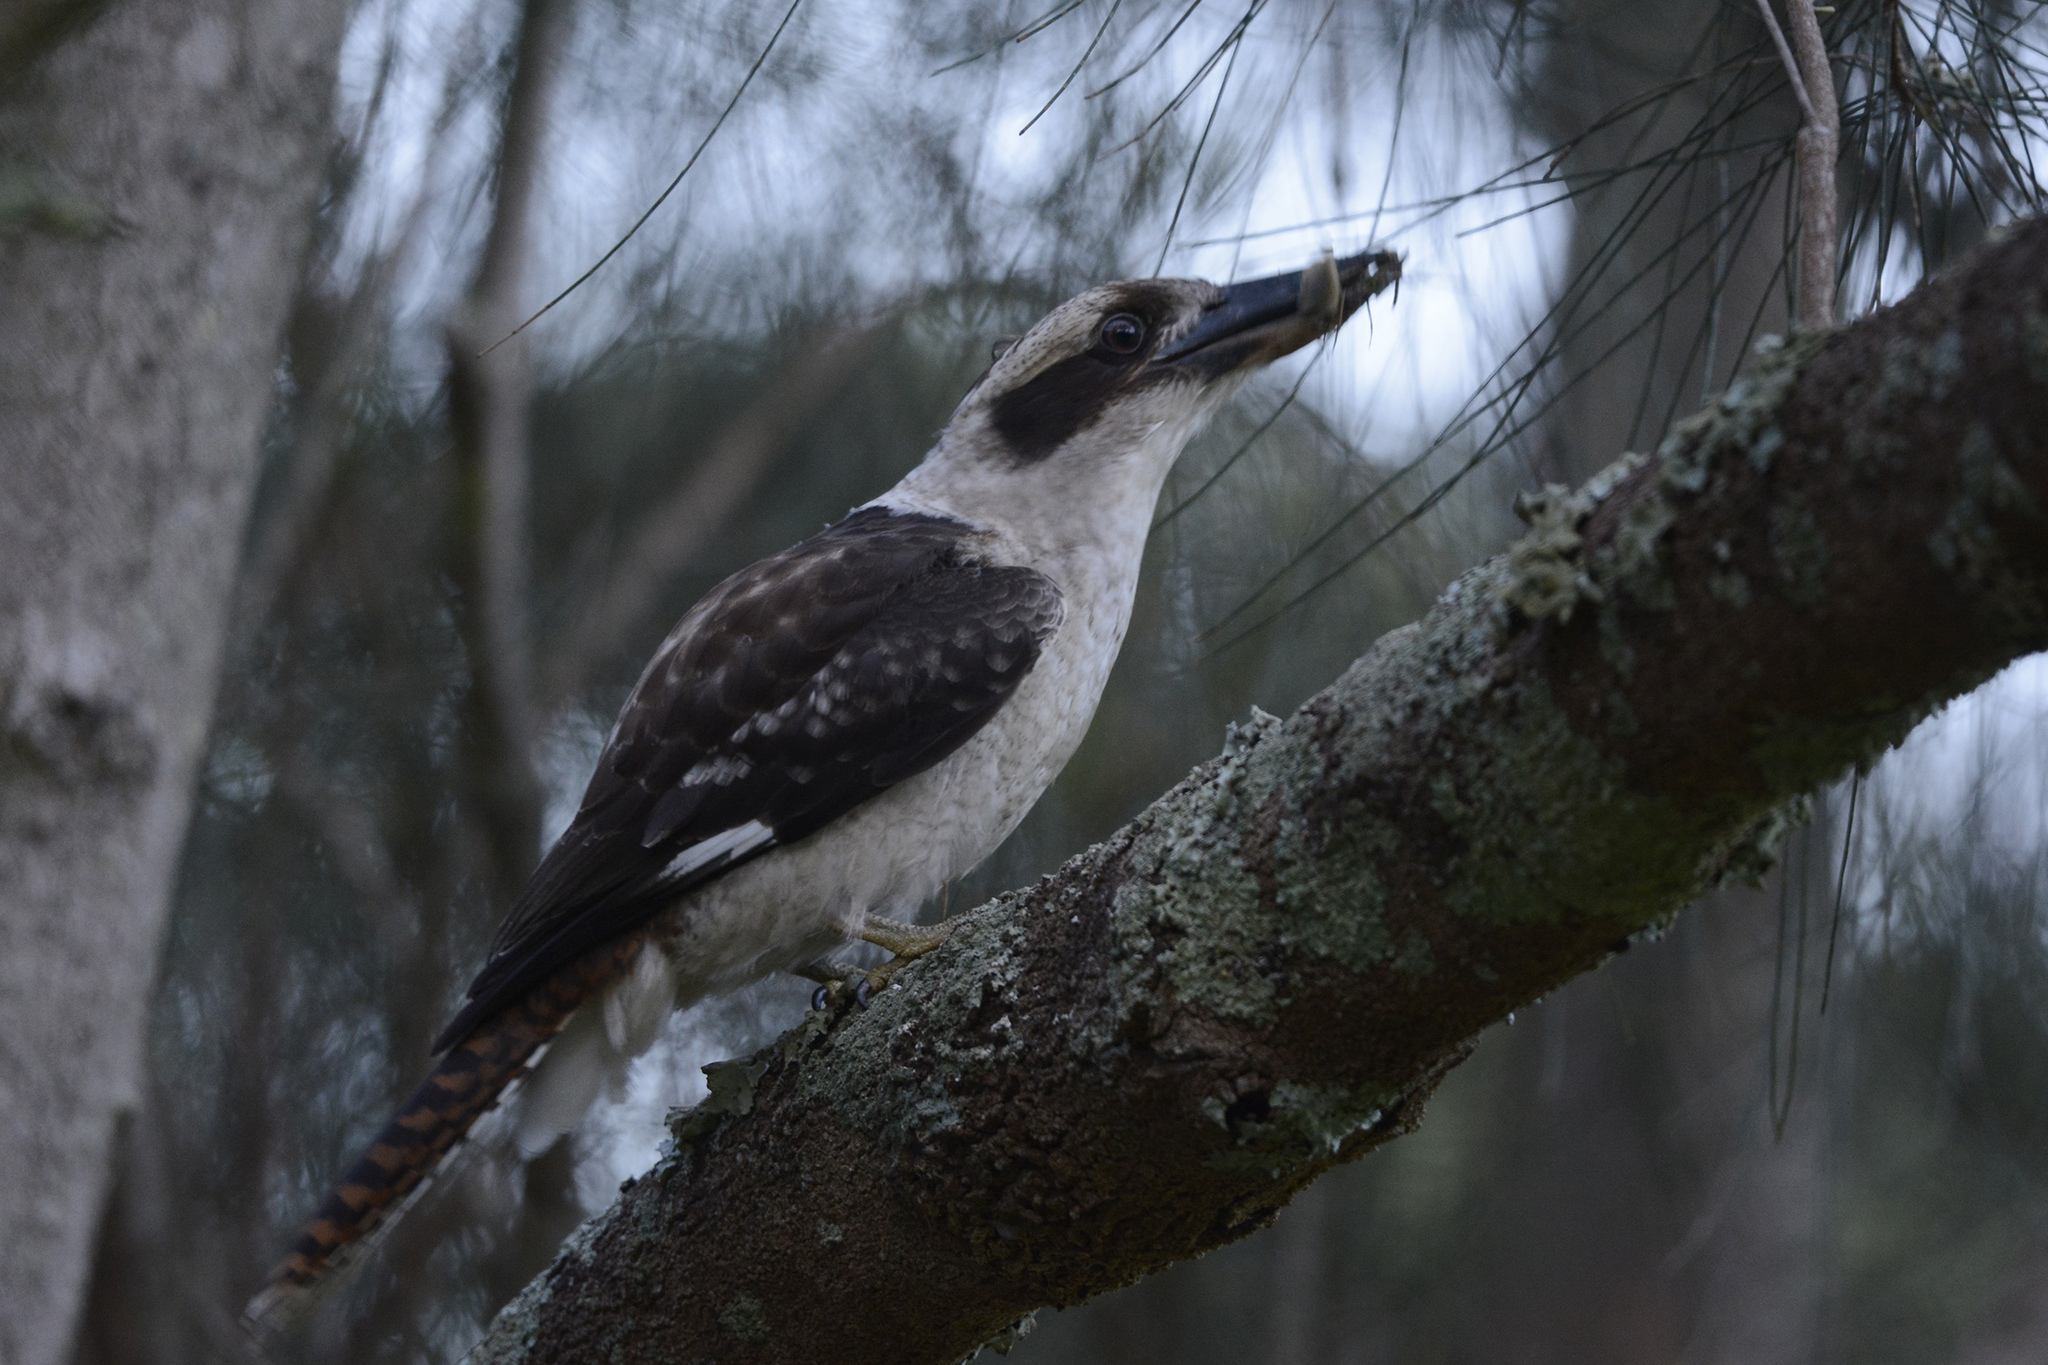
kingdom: Animalia
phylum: Chordata
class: Aves
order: Coraciiformes
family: Alcedinidae
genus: Dacelo
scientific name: Dacelo novaeguineae
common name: Laughing kookaburra
